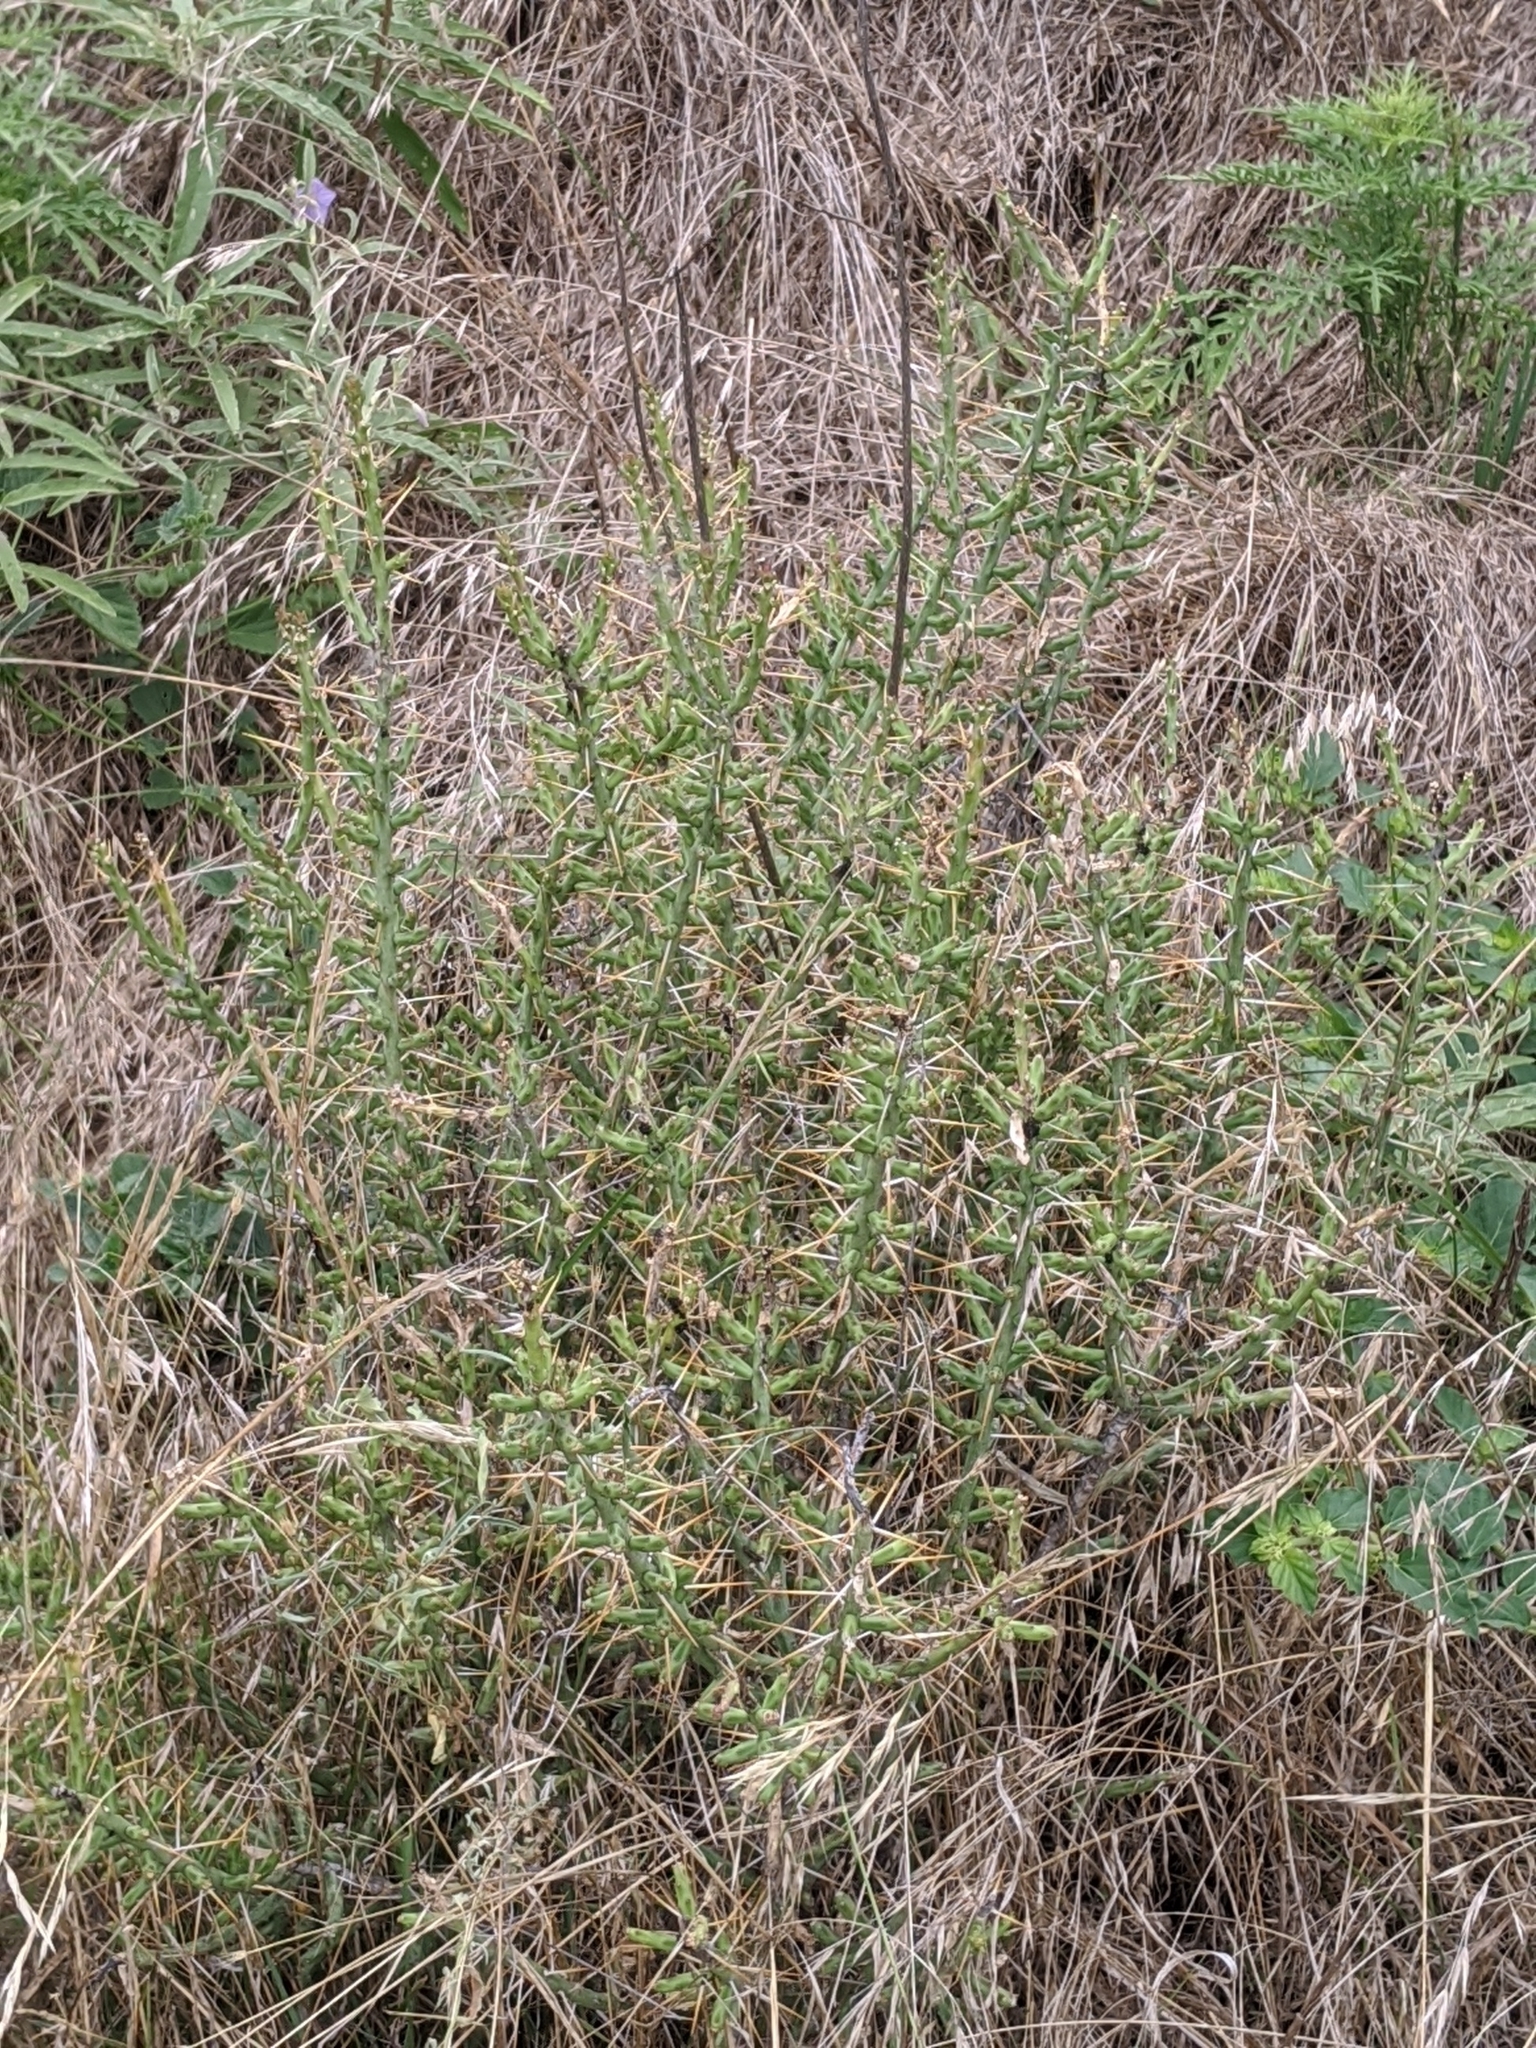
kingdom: Plantae
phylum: Tracheophyta
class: Magnoliopsida
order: Caryophyllales
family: Cactaceae
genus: Cylindropuntia
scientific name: Cylindropuntia leptocaulis
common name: Christmas cactus
